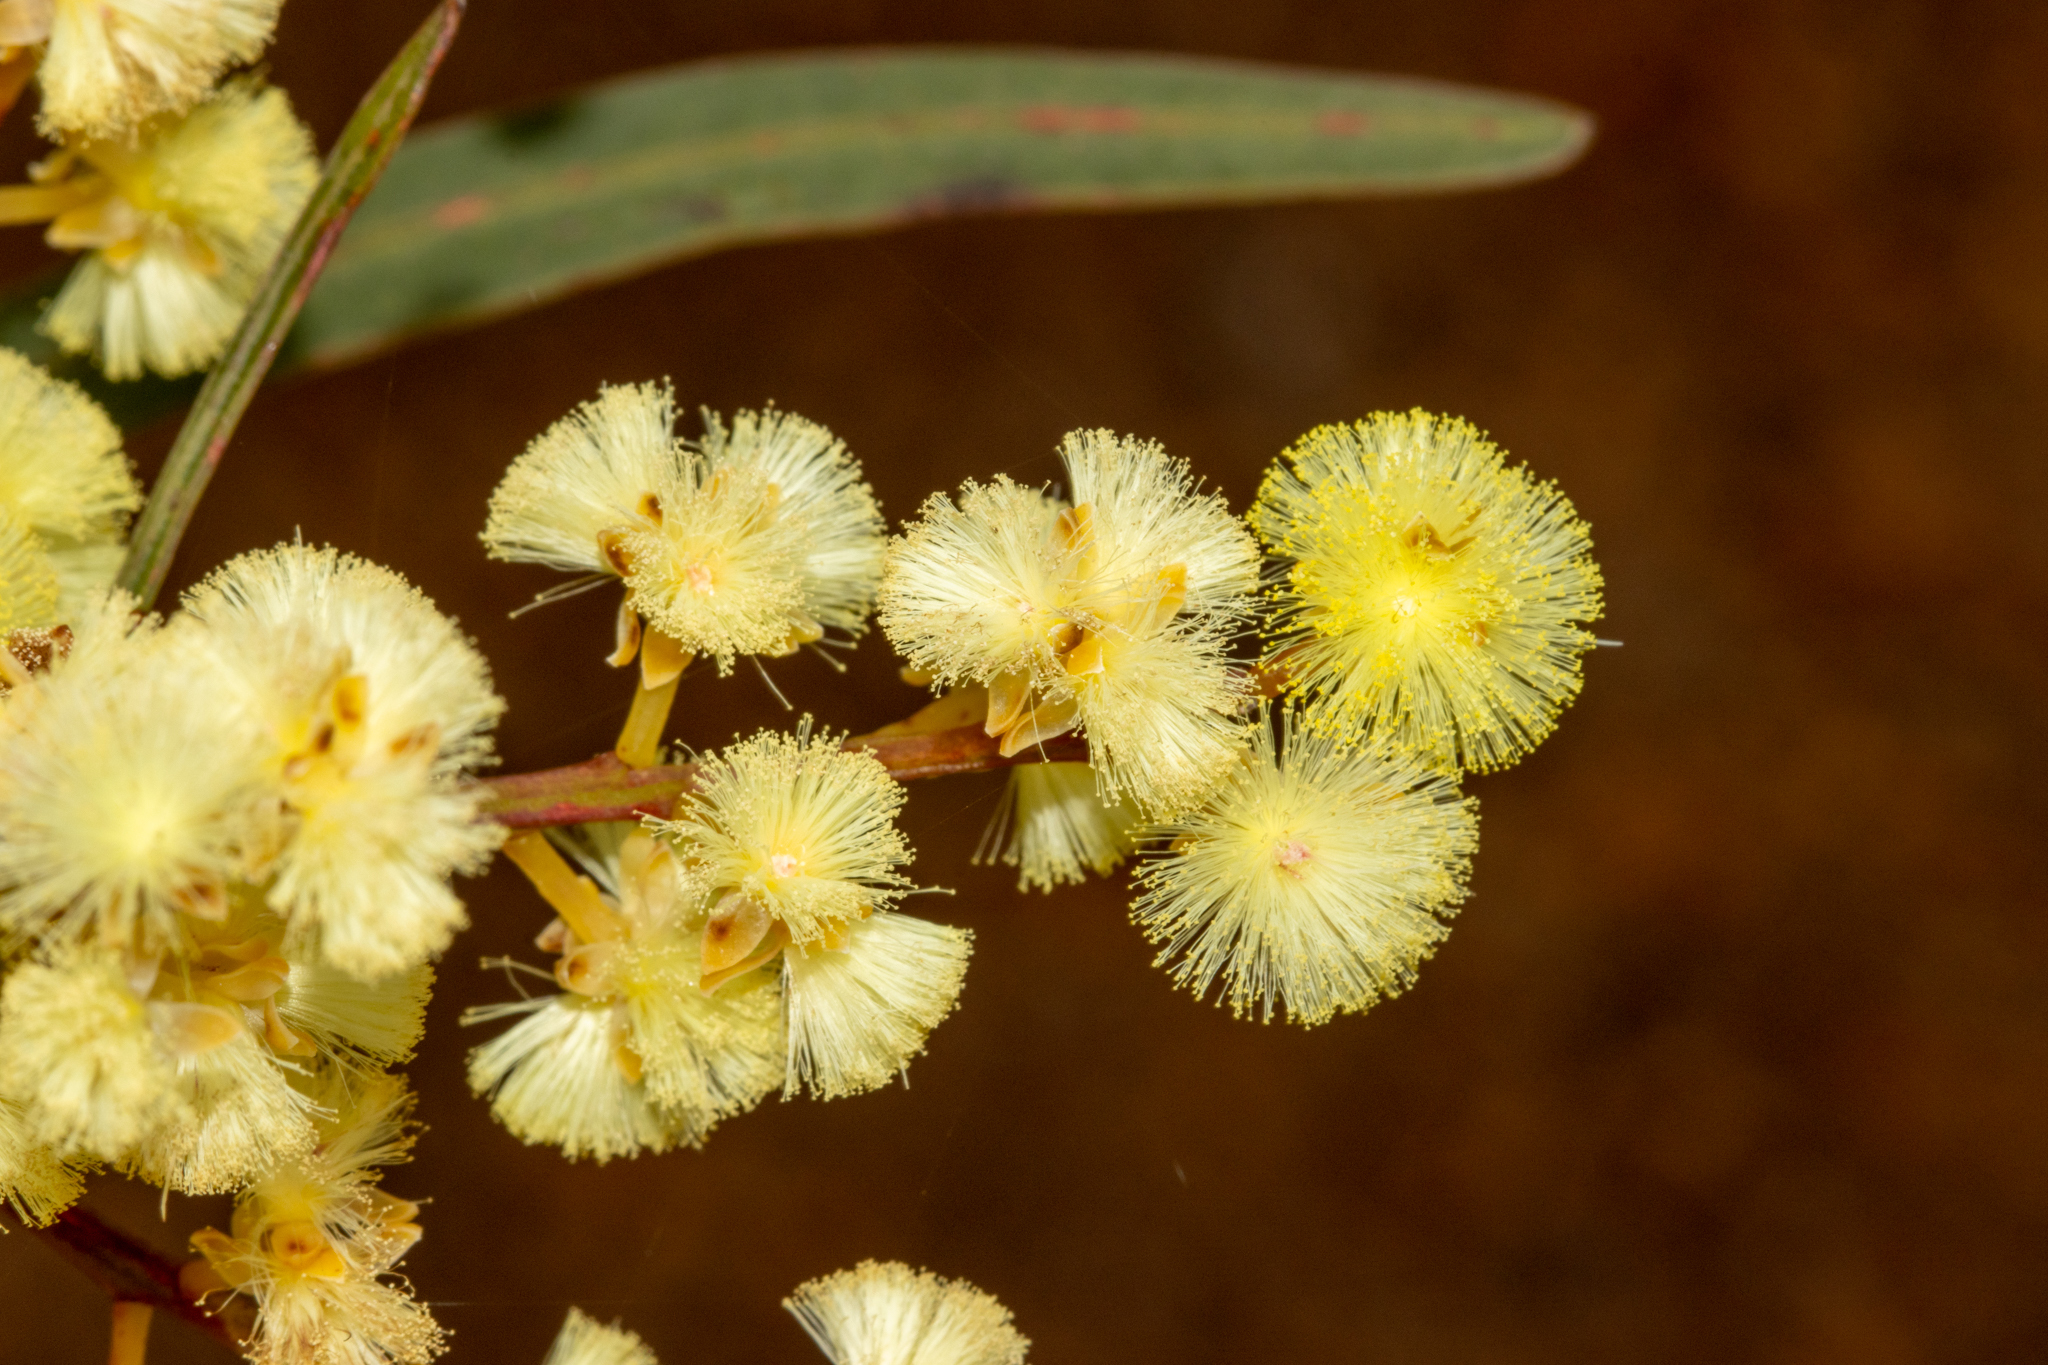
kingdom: Plantae
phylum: Tracheophyta
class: Magnoliopsida
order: Fabales
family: Fabaceae
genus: Acacia
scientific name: Acacia myrtifolia
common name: Myrtle wattle
